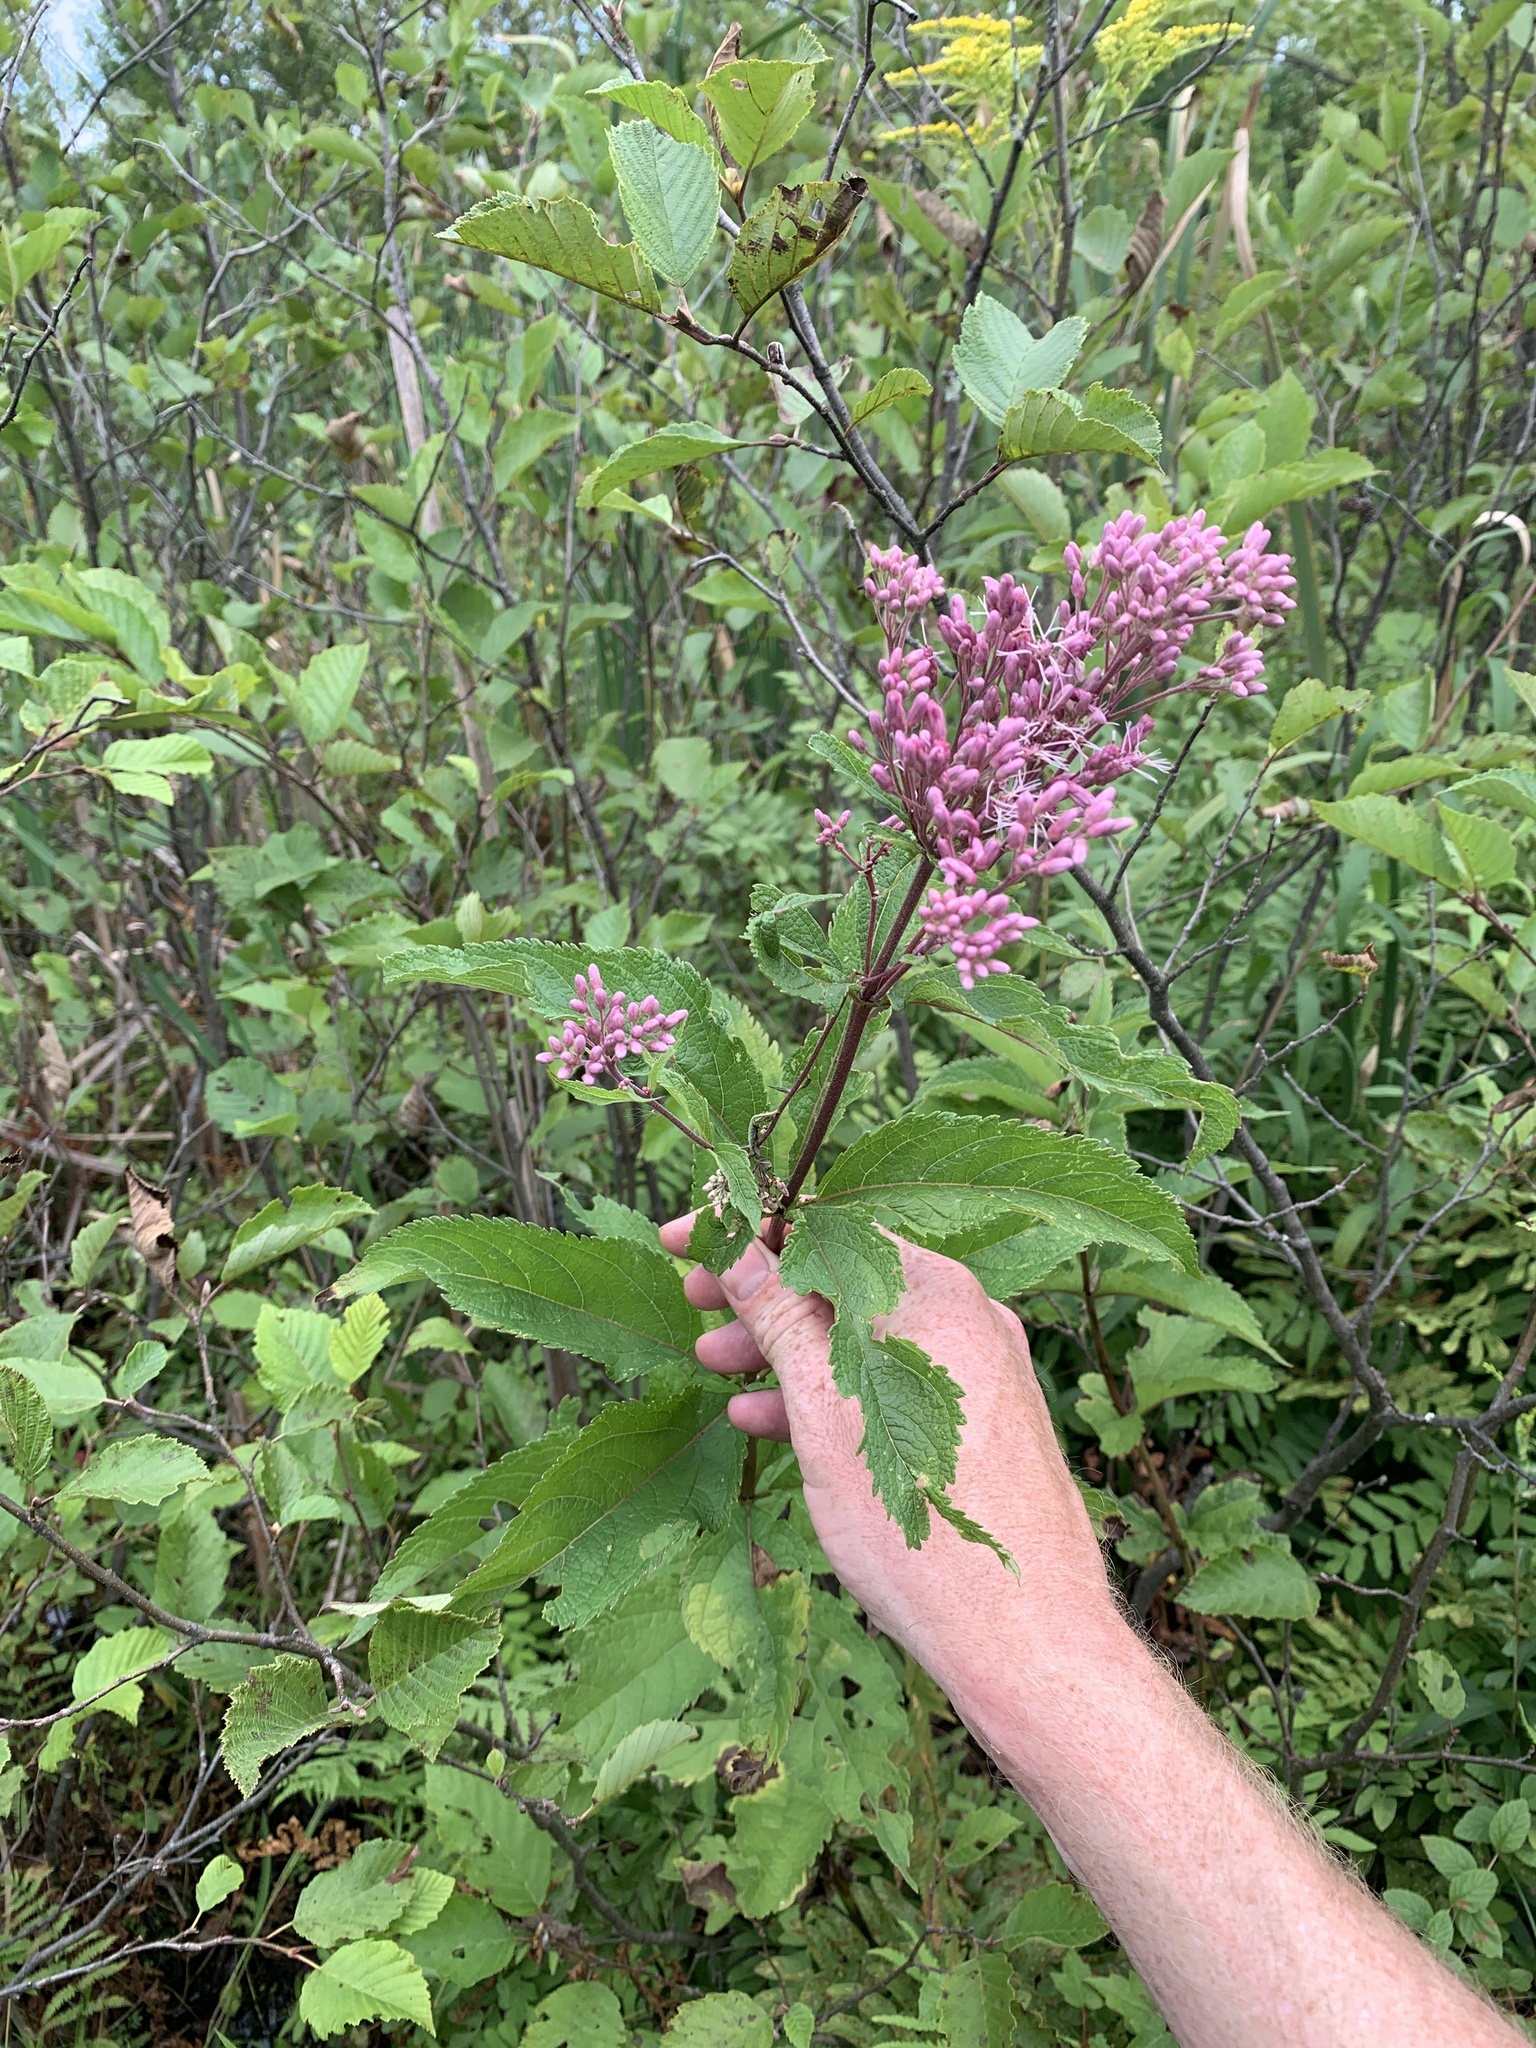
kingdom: Plantae
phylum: Tracheophyta
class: Magnoliopsida
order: Asterales
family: Asteraceae
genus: Eutrochium
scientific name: Eutrochium maculatum
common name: Spotted joe pye weed
